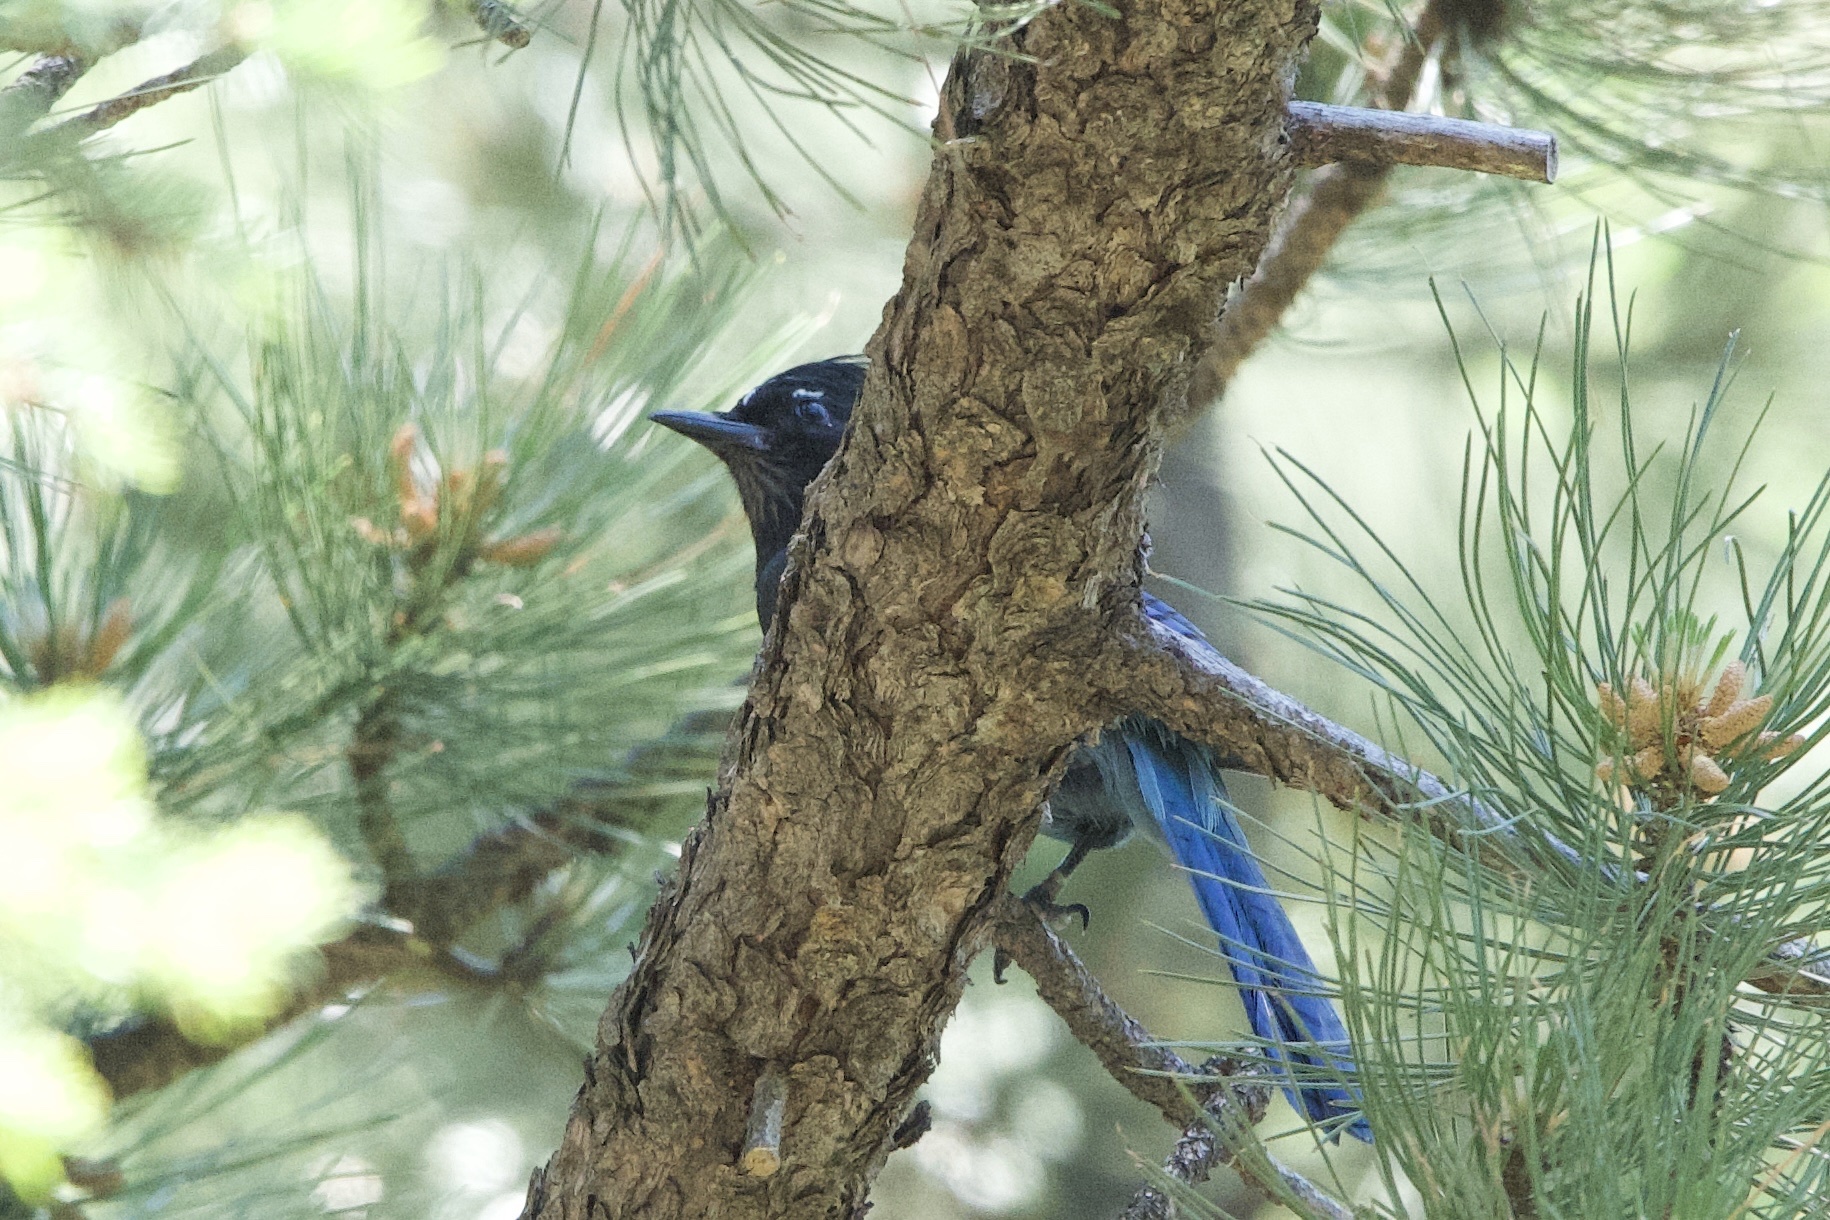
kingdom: Animalia
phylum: Chordata
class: Aves
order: Passeriformes
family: Corvidae
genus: Cyanocitta
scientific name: Cyanocitta stelleri
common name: Steller's jay
